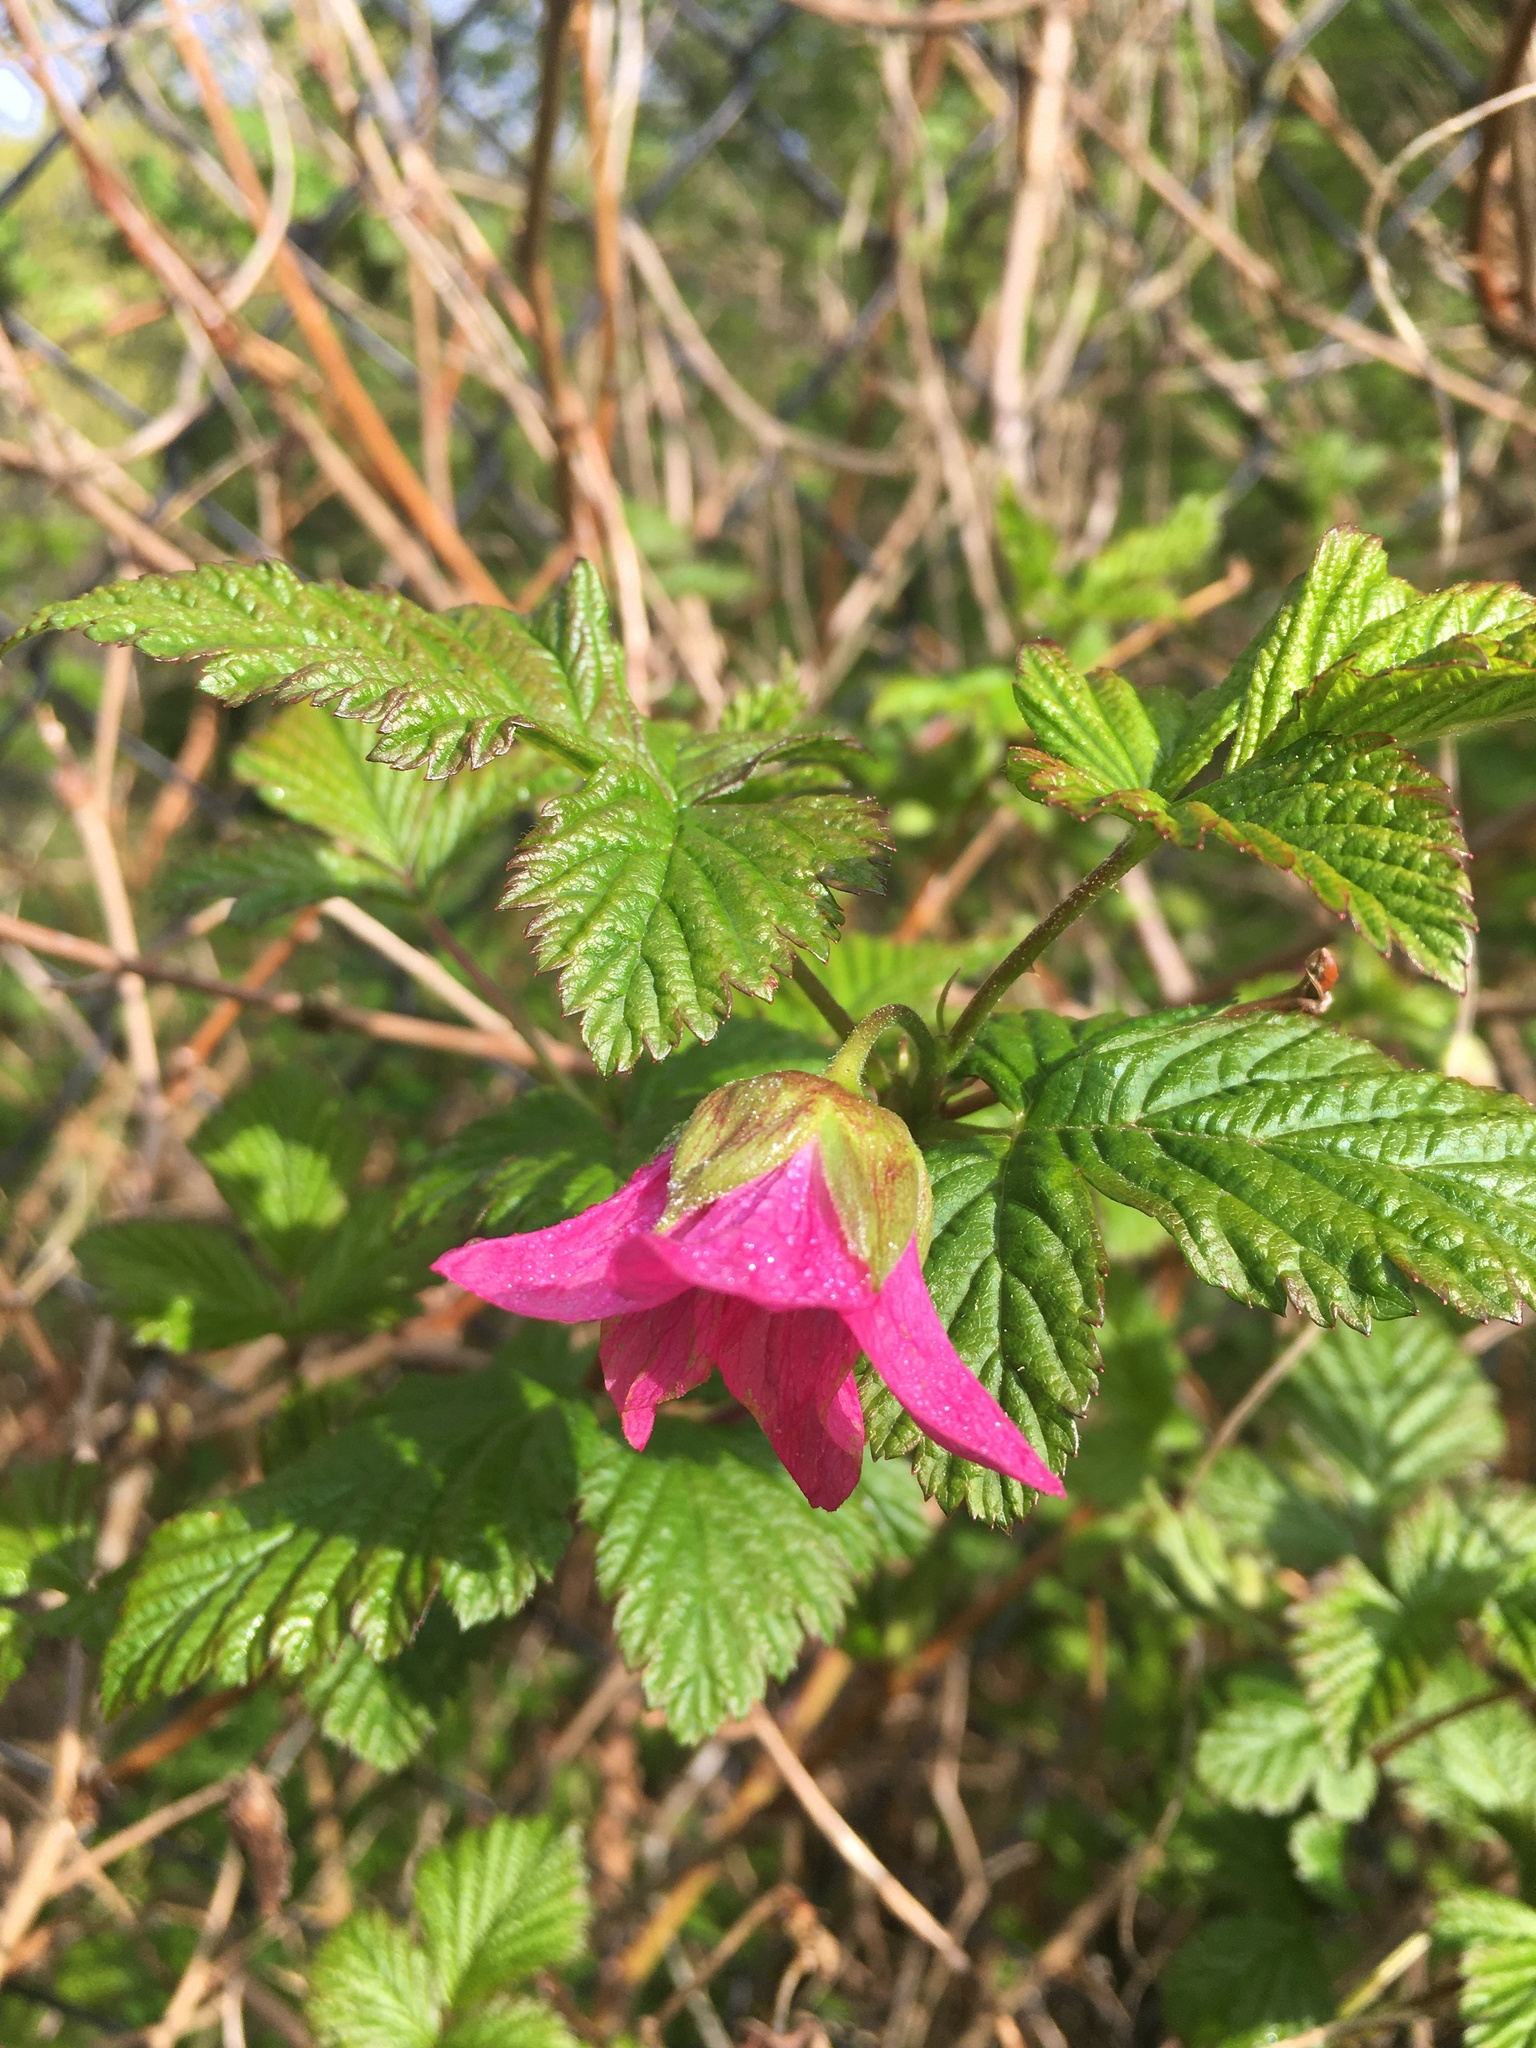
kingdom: Plantae
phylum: Tracheophyta
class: Magnoliopsida
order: Rosales
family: Rosaceae
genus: Rubus
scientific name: Rubus spectabilis
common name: Salmonberry
